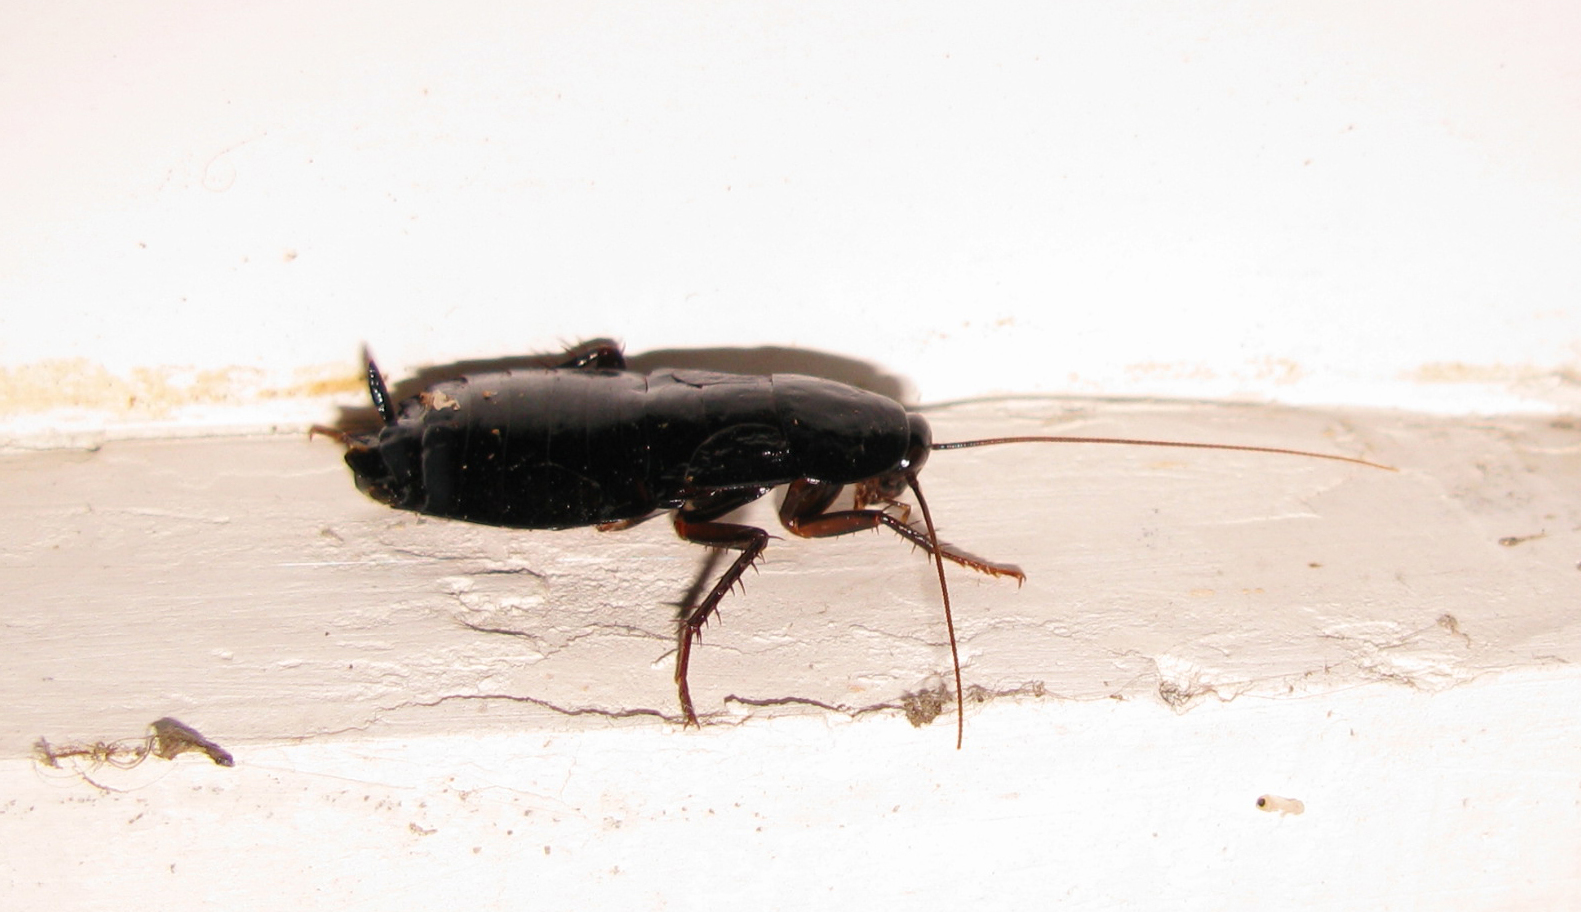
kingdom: Animalia
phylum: Arthropoda
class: Insecta
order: Blattodea
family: Blattidae
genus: Blatta
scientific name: Blatta orientalis
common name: Oriental cockroach
